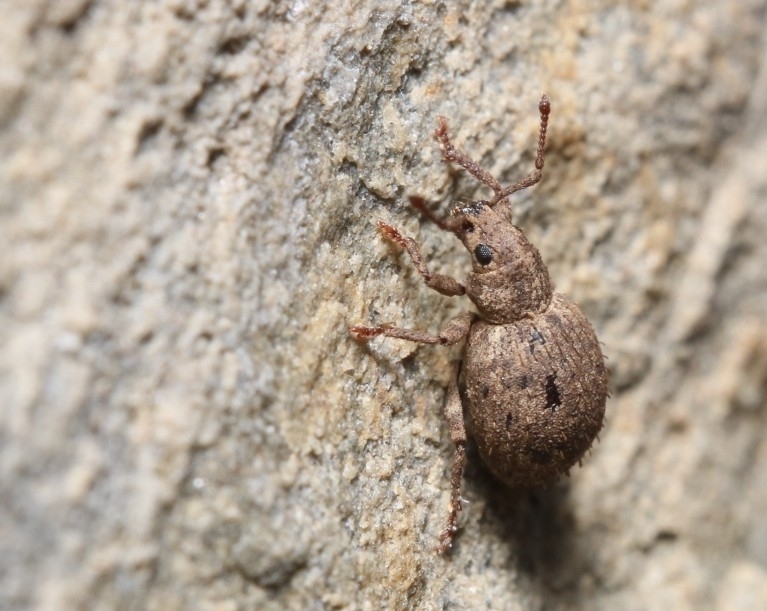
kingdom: Animalia
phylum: Arthropoda
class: Insecta
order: Coleoptera
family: Curculionidae
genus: Myosides
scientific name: Myosides seriehispidus
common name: Broadnosed weevil
